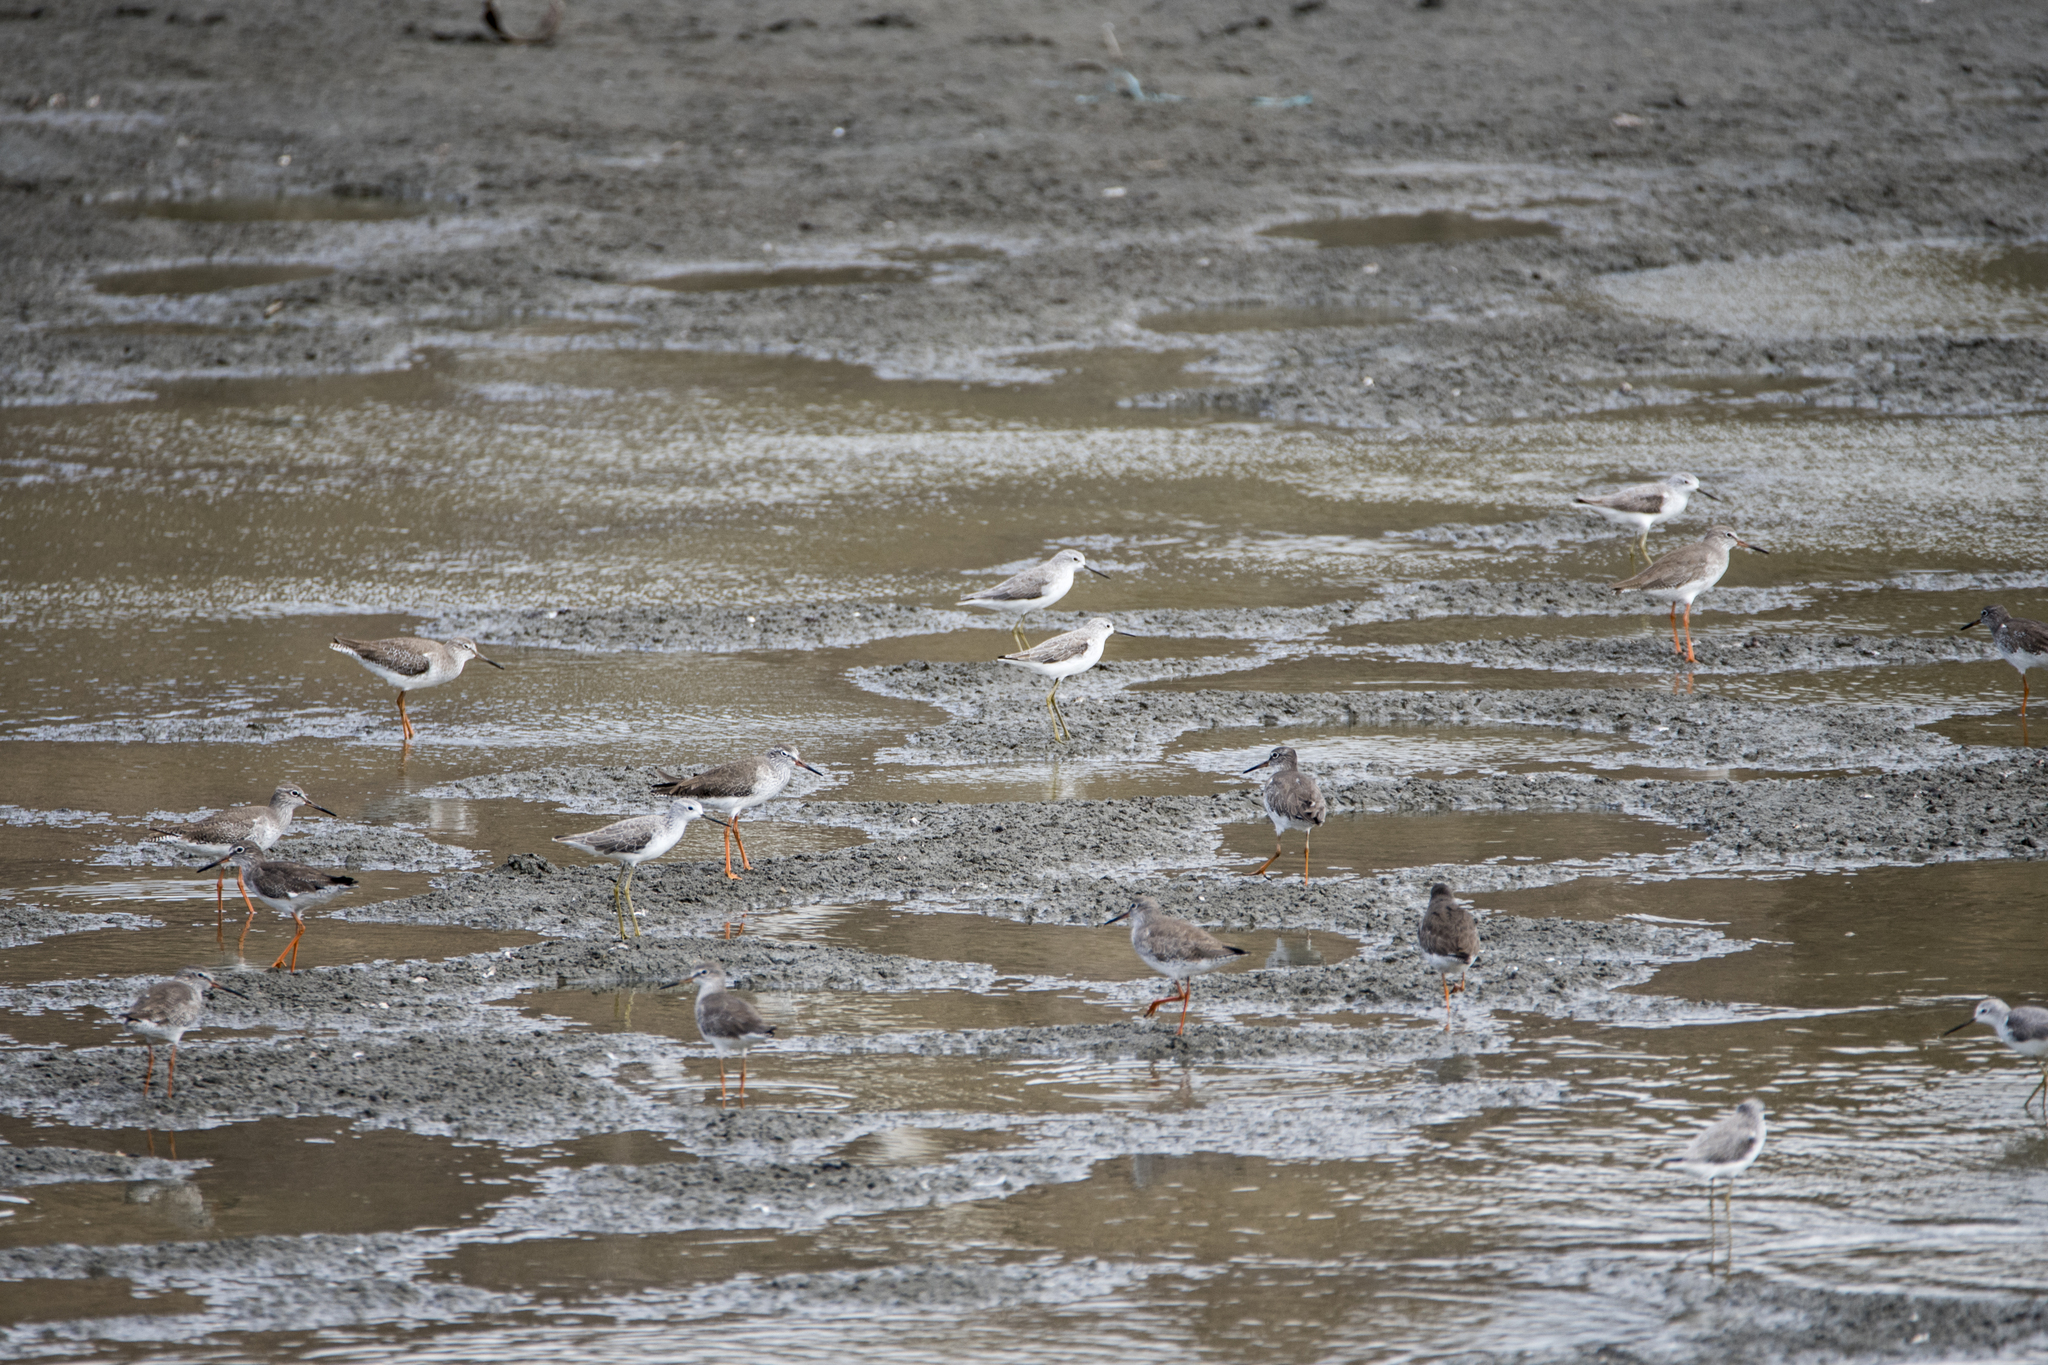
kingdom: Animalia
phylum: Chordata
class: Aves
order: Charadriiformes
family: Scolopacidae
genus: Tringa
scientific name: Tringa stagnatilis
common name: Marsh sandpiper
